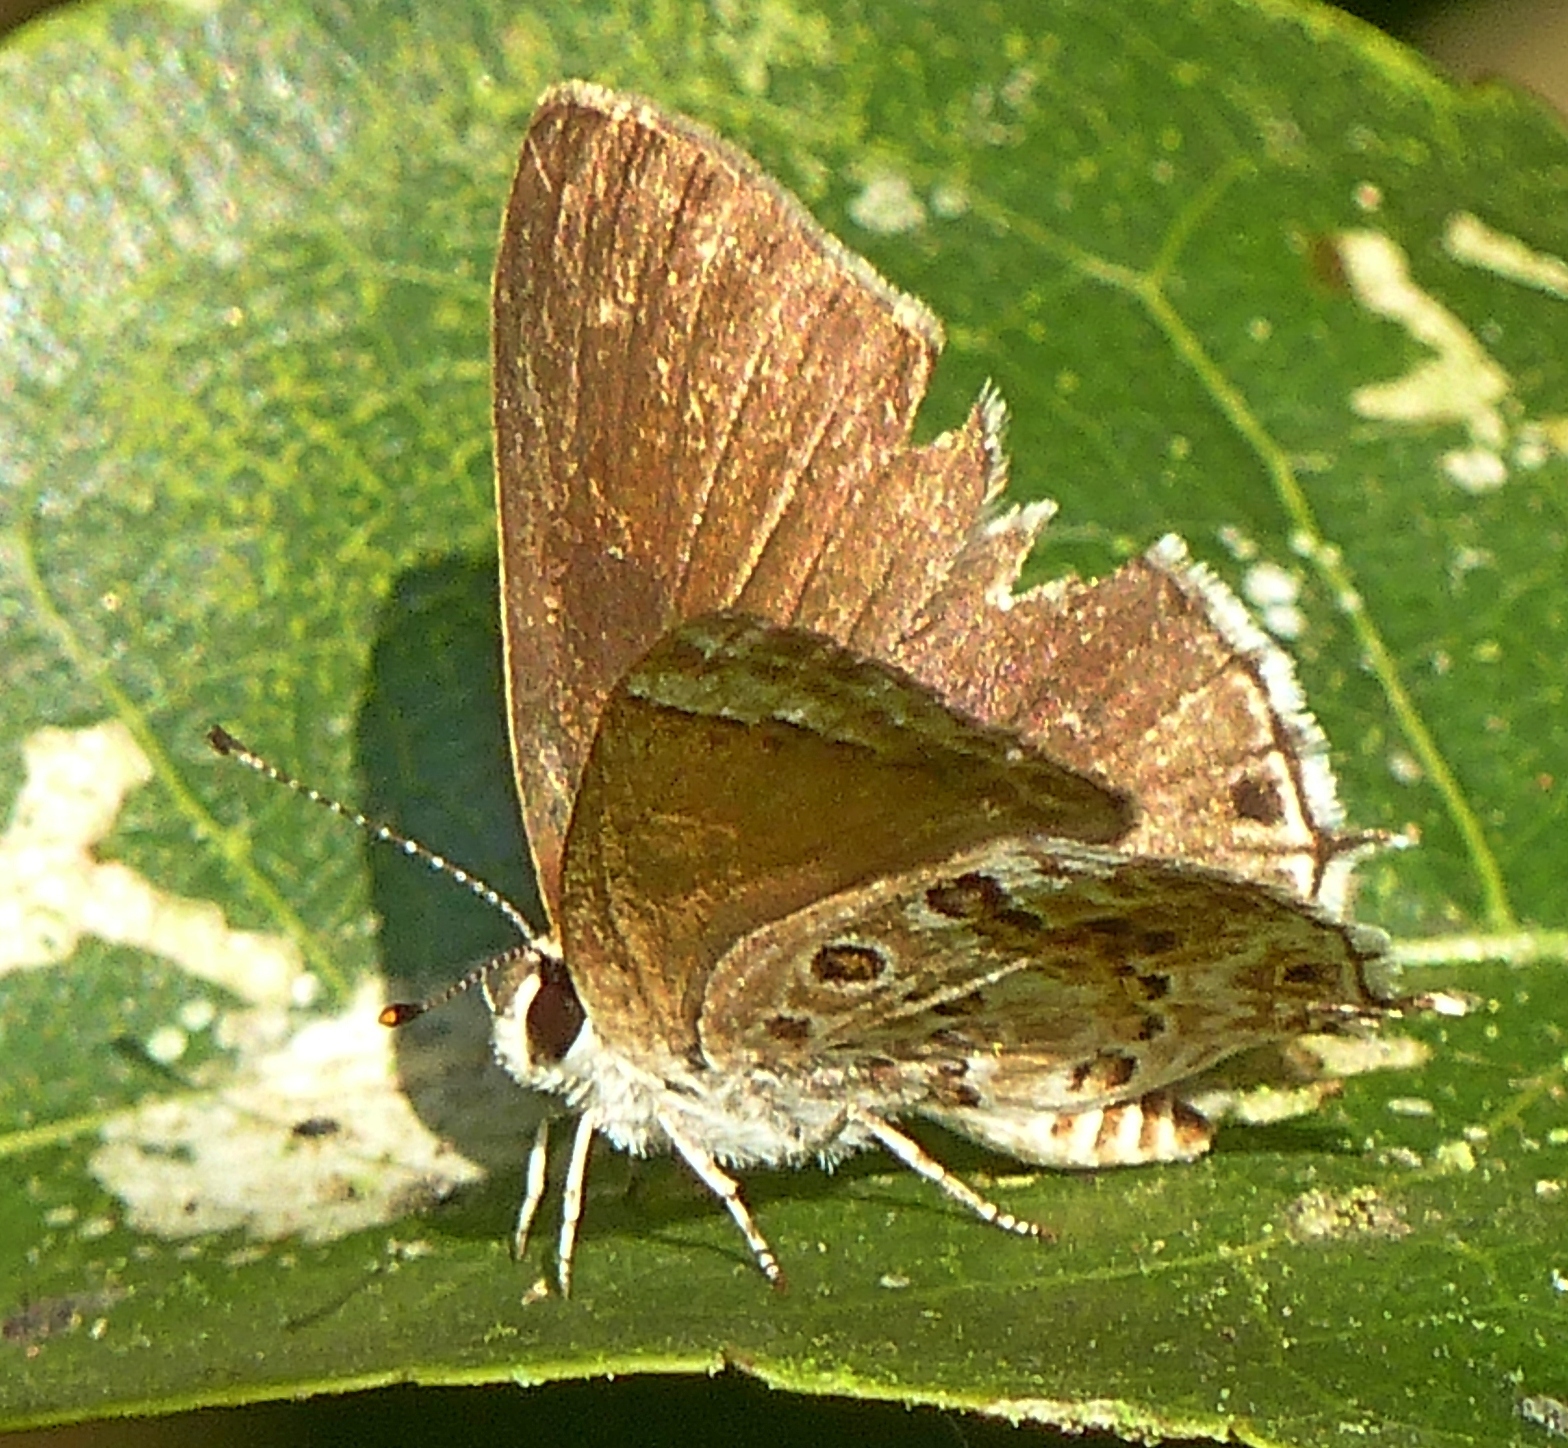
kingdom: Animalia
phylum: Arthropoda
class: Insecta
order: Lepidoptera
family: Lycaenidae
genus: Strymon
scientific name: Strymon astiocha
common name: Gray-spotted scrub-hairstreak
